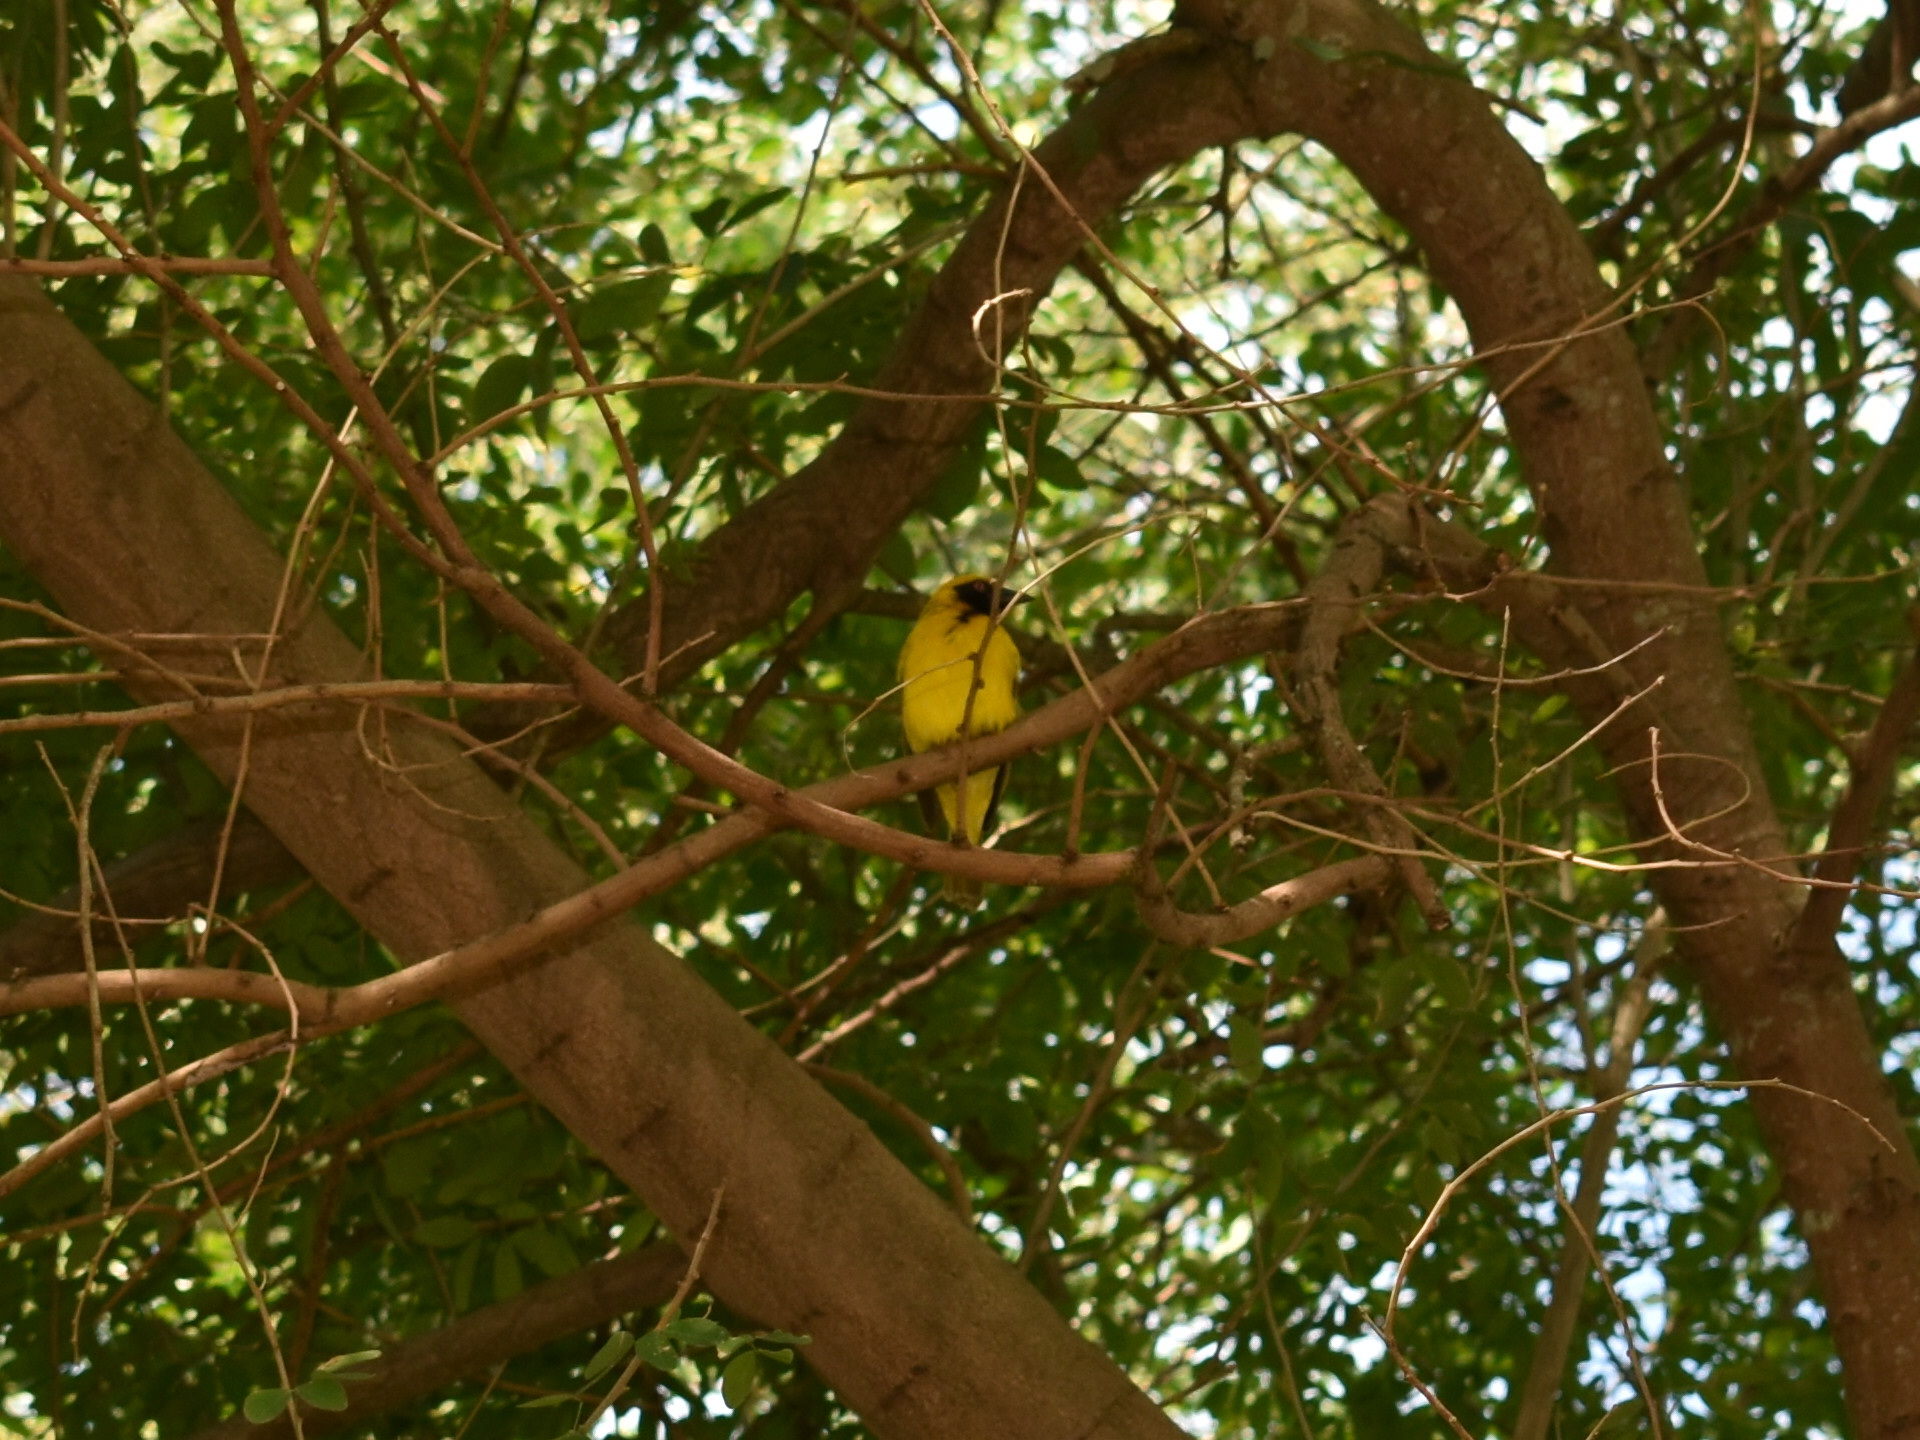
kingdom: Animalia
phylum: Chordata
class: Aves
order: Passeriformes
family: Ploceidae
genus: Ploceus
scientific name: Ploceus cucullatus
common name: Village weaver
